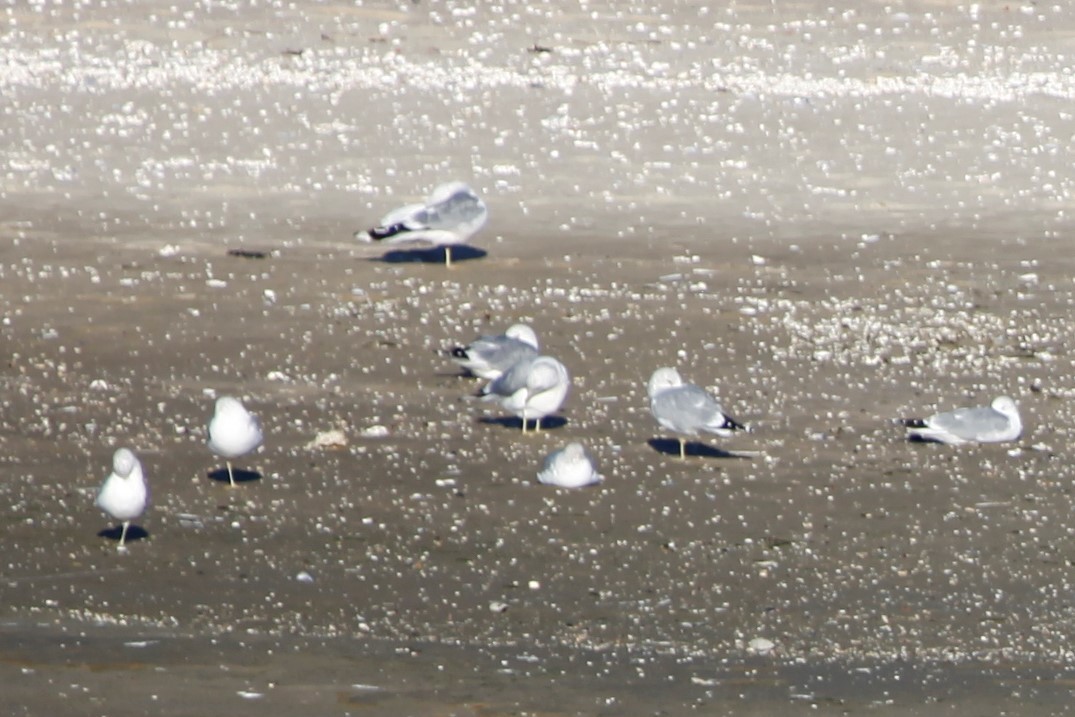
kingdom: Animalia
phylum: Chordata
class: Aves
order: Charadriiformes
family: Laridae
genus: Larus
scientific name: Larus canus
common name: Mew gull
